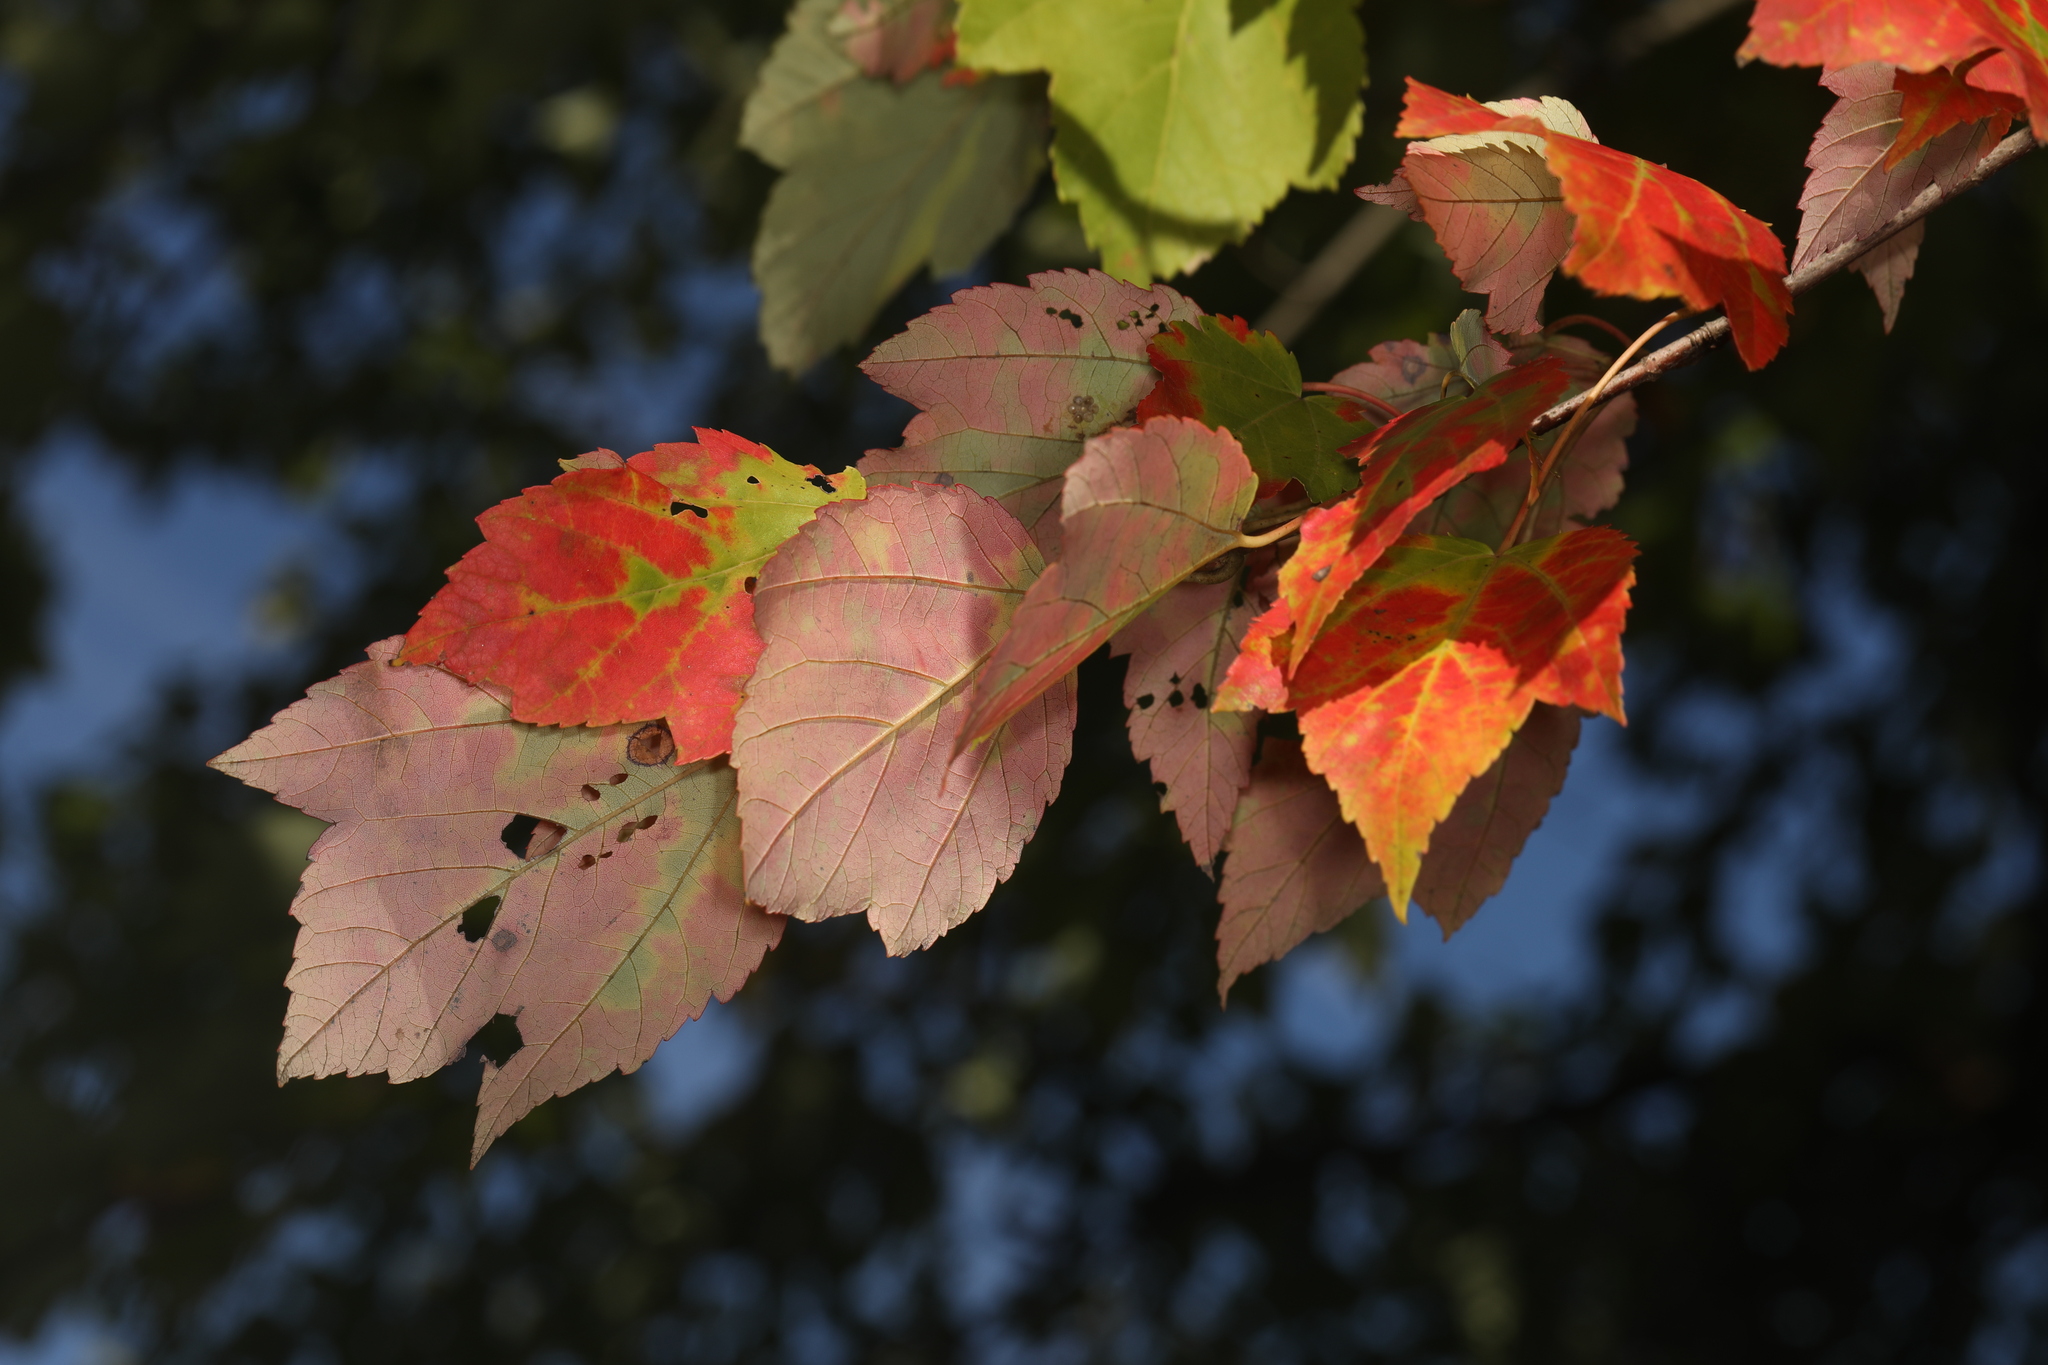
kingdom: Plantae
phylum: Tracheophyta
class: Magnoliopsida
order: Sapindales
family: Sapindaceae
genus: Acer
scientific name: Acer rubrum
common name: Red maple
